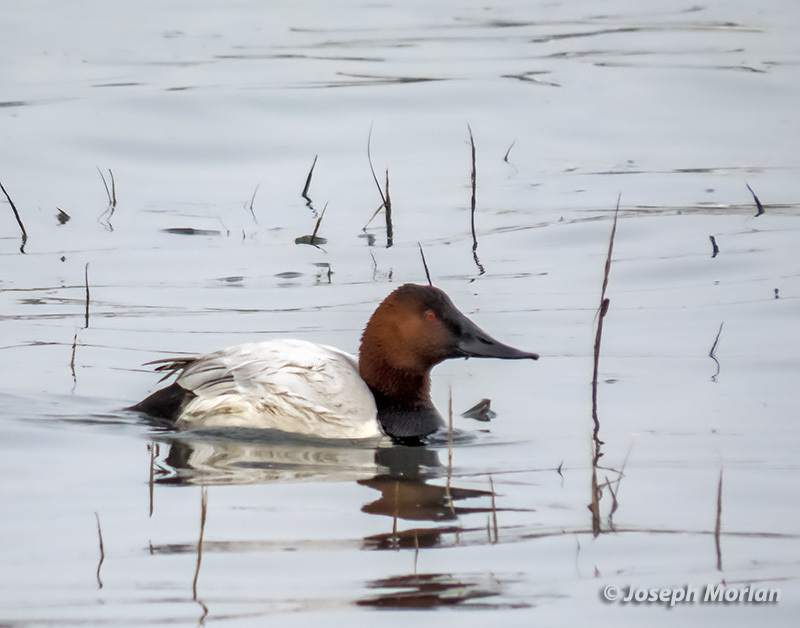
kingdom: Animalia
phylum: Chordata
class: Aves
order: Anseriformes
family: Anatidae
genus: Aythya
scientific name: Aythya valisineria
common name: Canvasback
